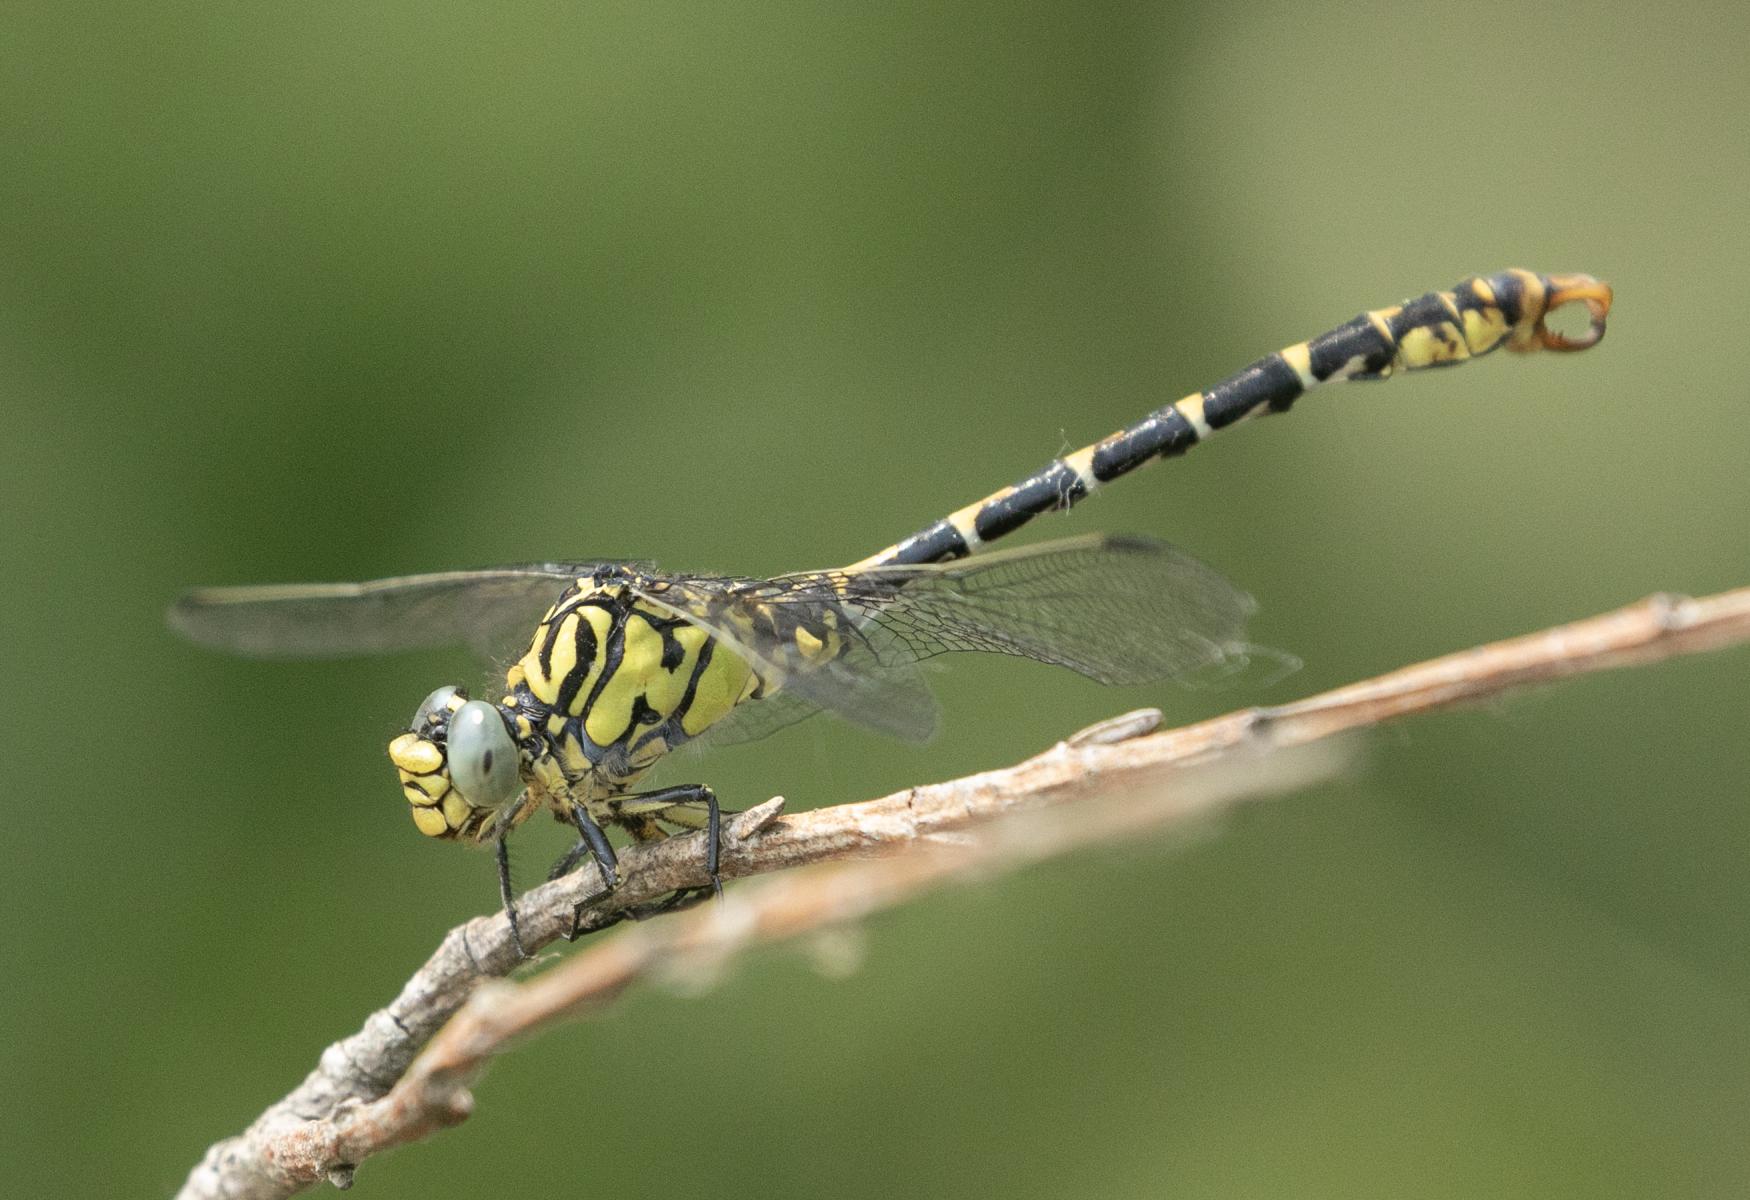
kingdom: Animalia
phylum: Arthropoda
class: Insecta
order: Odonata
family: Gomphidae
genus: Onychogomphus
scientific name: Onychogomphus forcipatus
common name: Small pincertail
